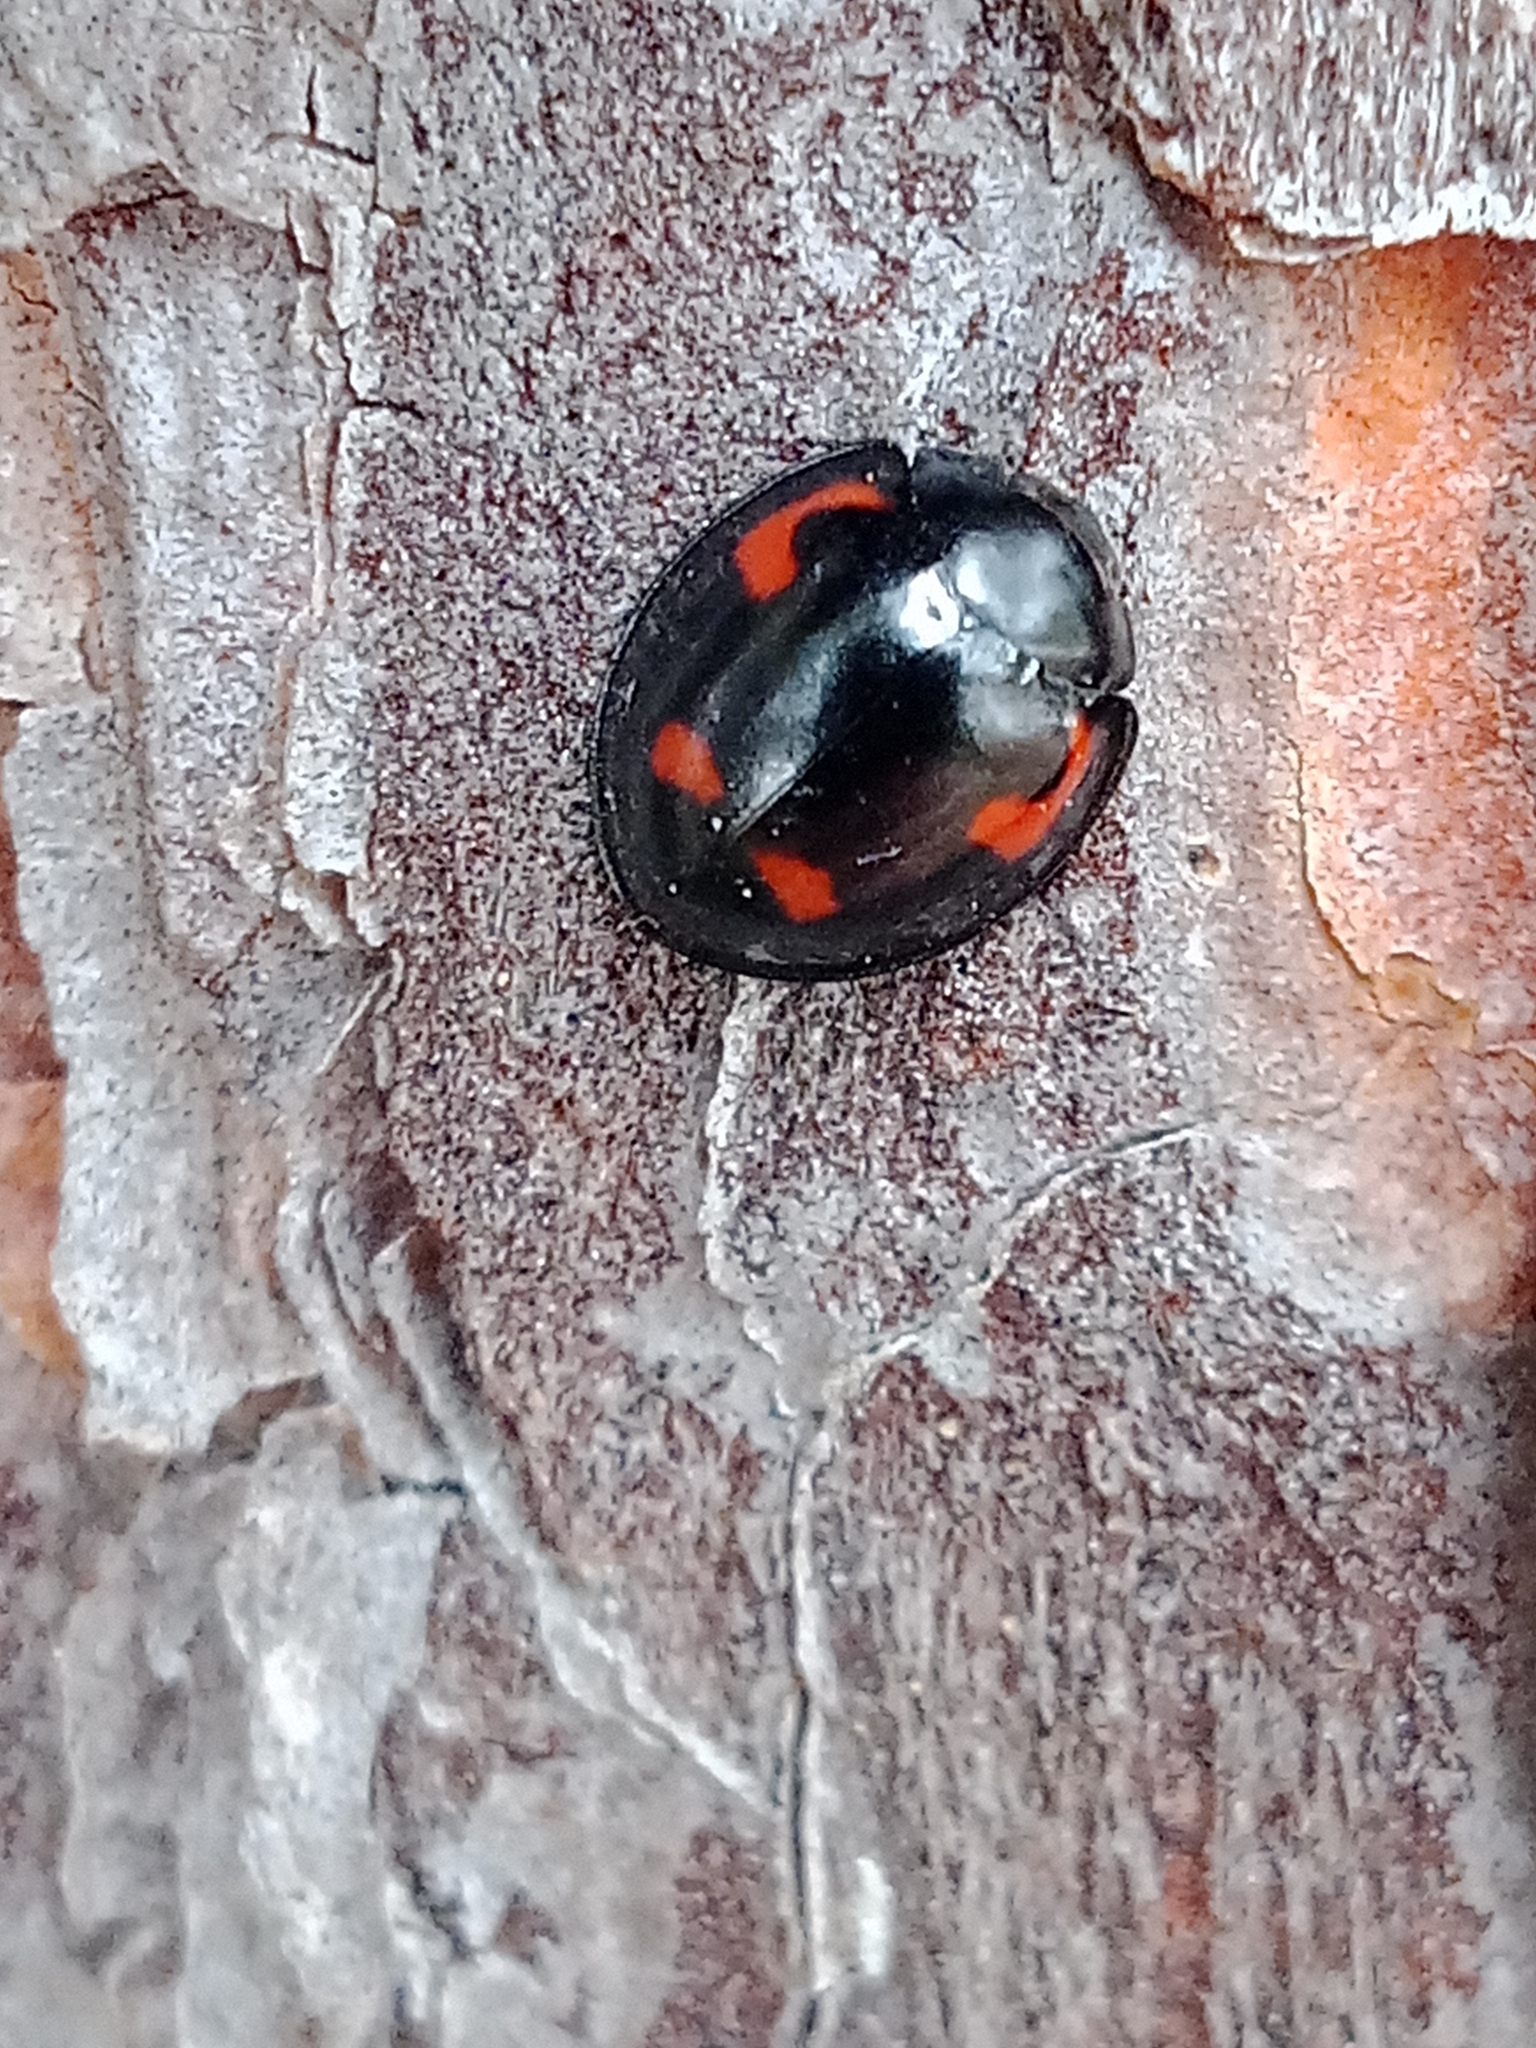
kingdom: Animalia
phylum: Arthropoda
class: Insecta
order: Coleoptera
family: Coccinellidae
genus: Brumus
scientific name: Brumus quadripustulatus
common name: Ladybird beetle
